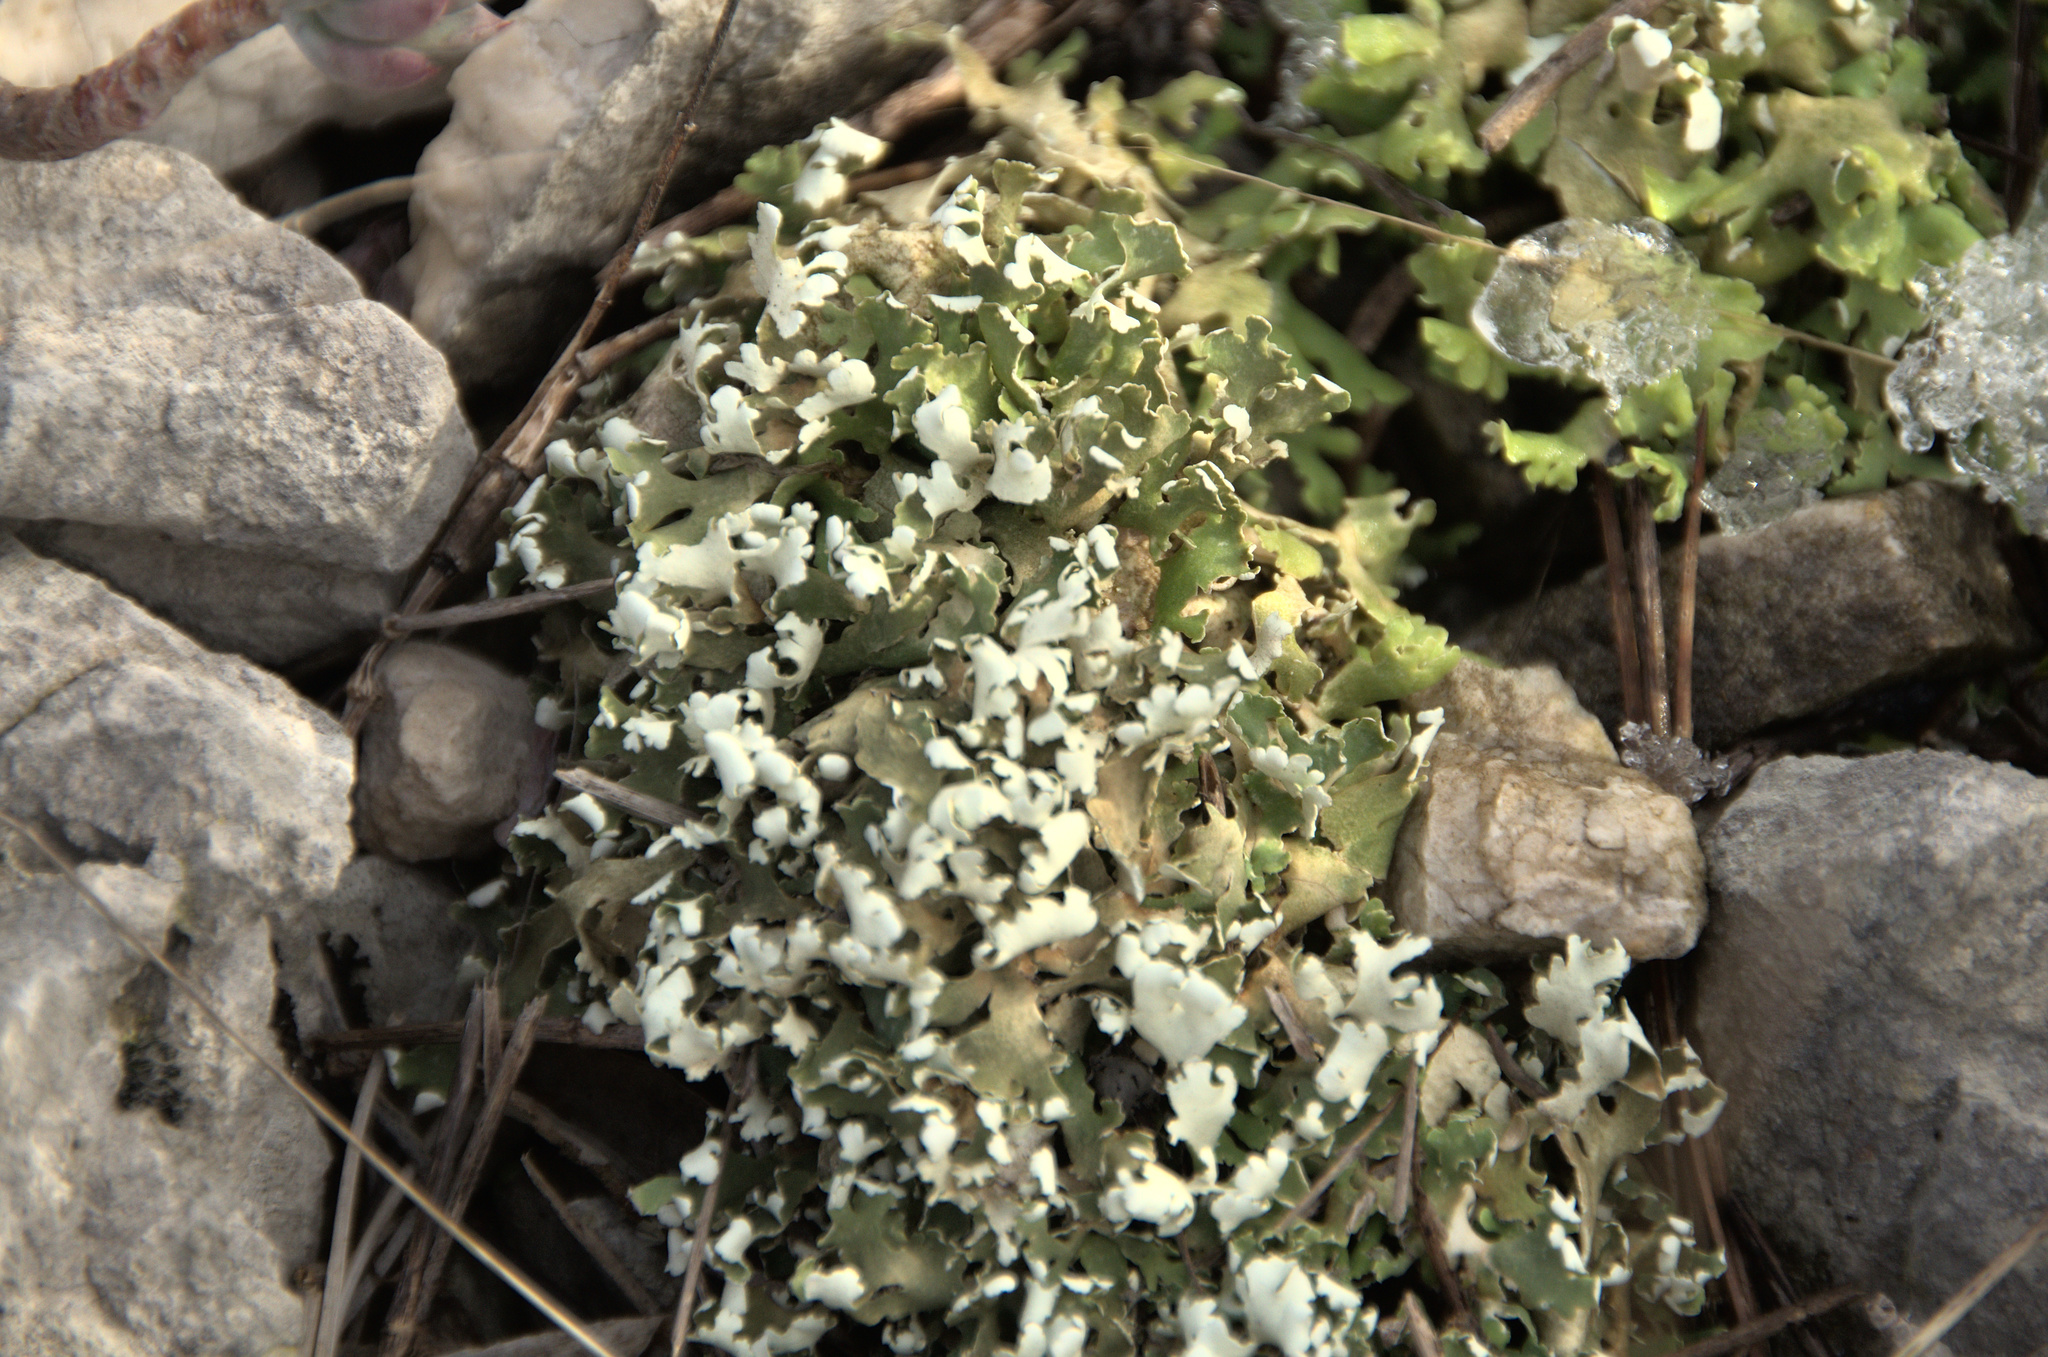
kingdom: Fungi
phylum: Ascomycota
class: Lecanoromycetes
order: Lecanorales
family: Cladoniaceae
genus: Cladonia
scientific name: Cladonia foliacea
